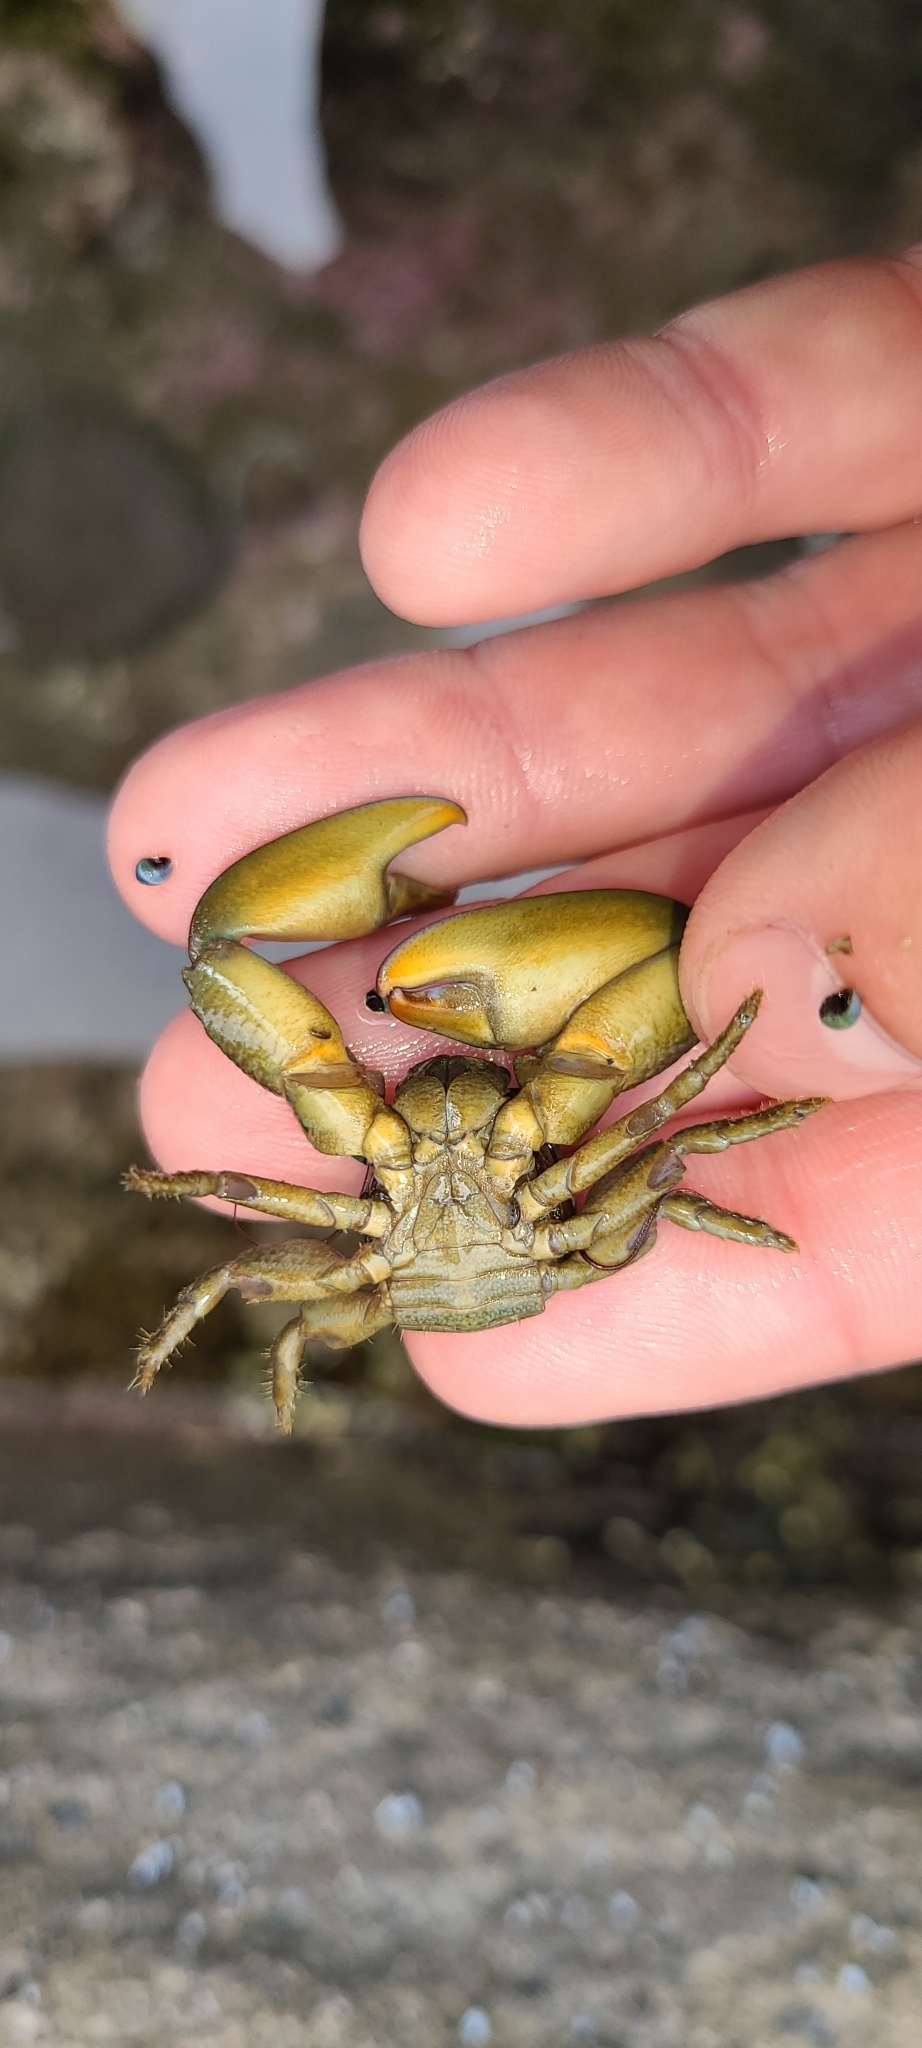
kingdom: Animalia
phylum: Arthropoda
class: Malacostraca
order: Decapoda
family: Porcellanidae
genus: Petrolisthes
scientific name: Petrolisthes elongatus
